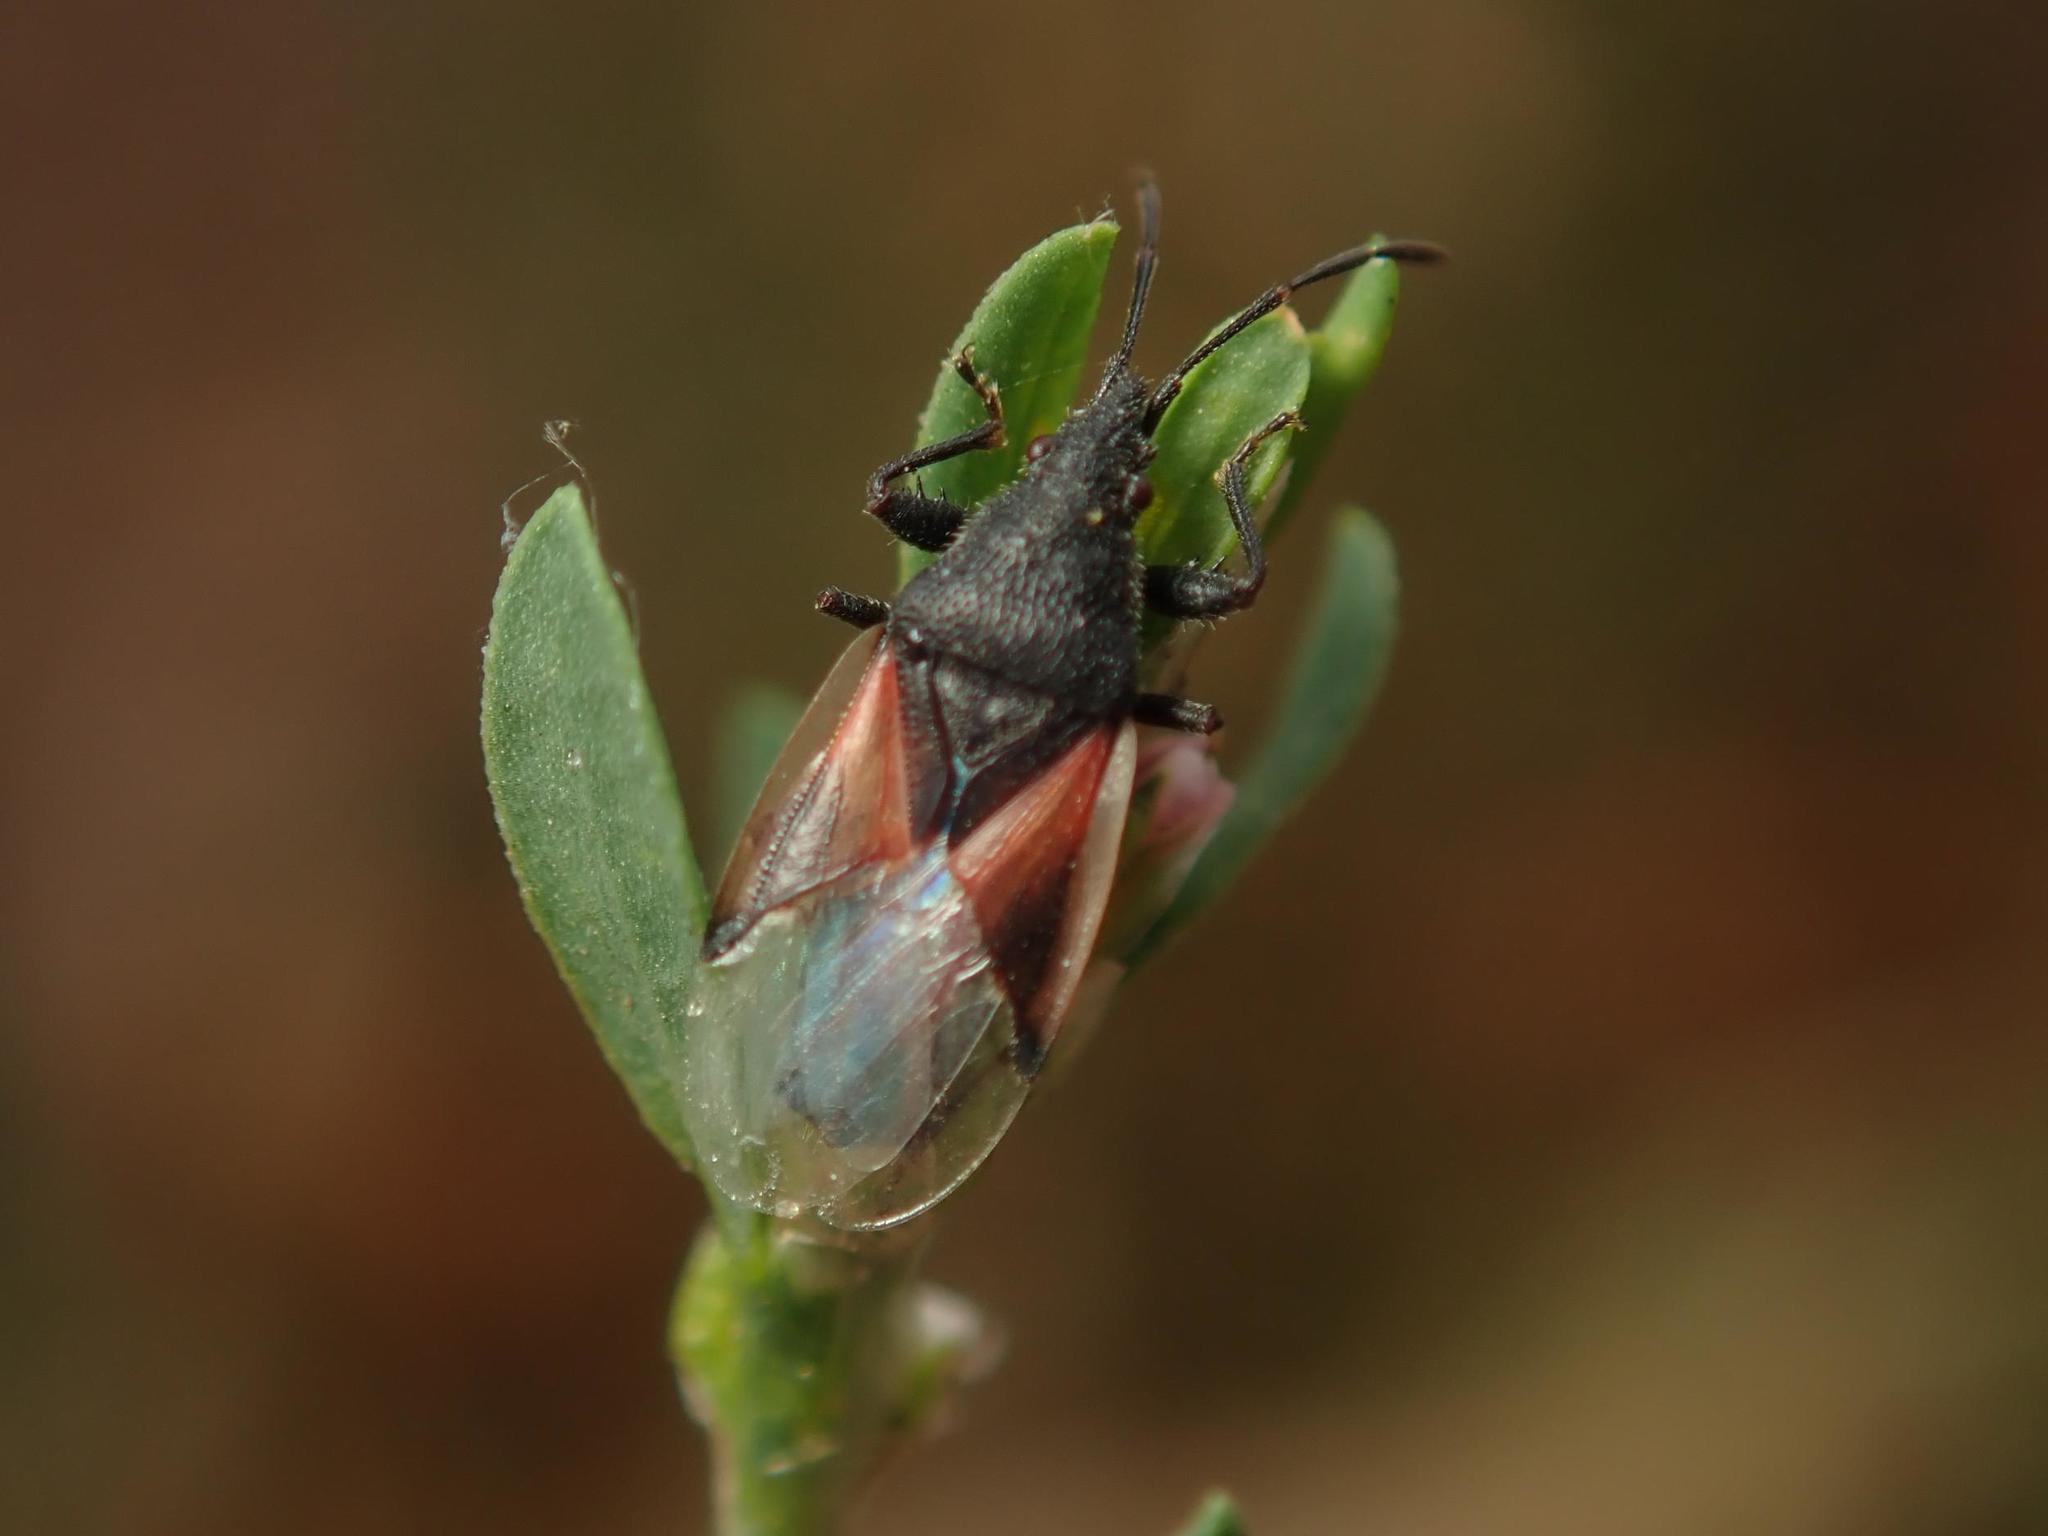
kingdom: Animalia
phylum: Arthropoda
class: Insecta
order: Hemiptera
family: Oxycarenidae
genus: Oxycarenus
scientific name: Oxycarenus lavaterae
